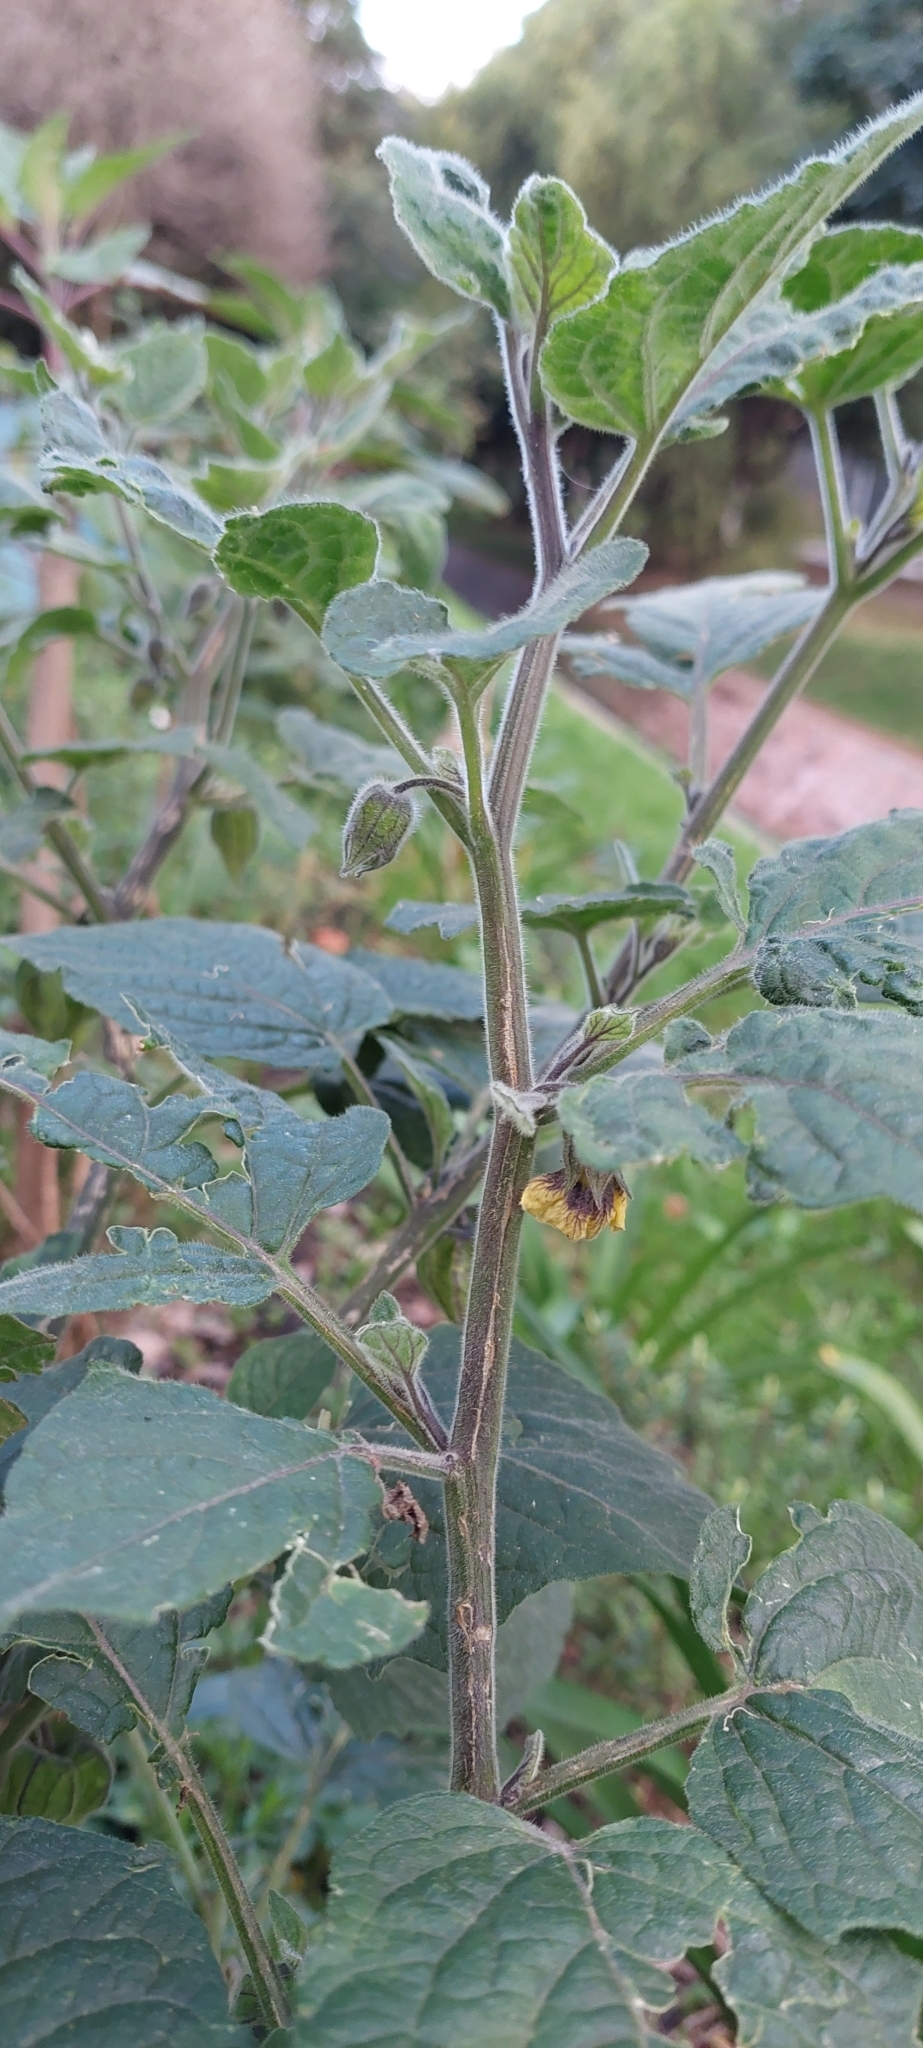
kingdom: Plantae
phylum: Tracheophyta
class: Magnoliopsida
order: Solanales
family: Solanaceae
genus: Physalis
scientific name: Physalis peruviana
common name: Cape-gooseberry
